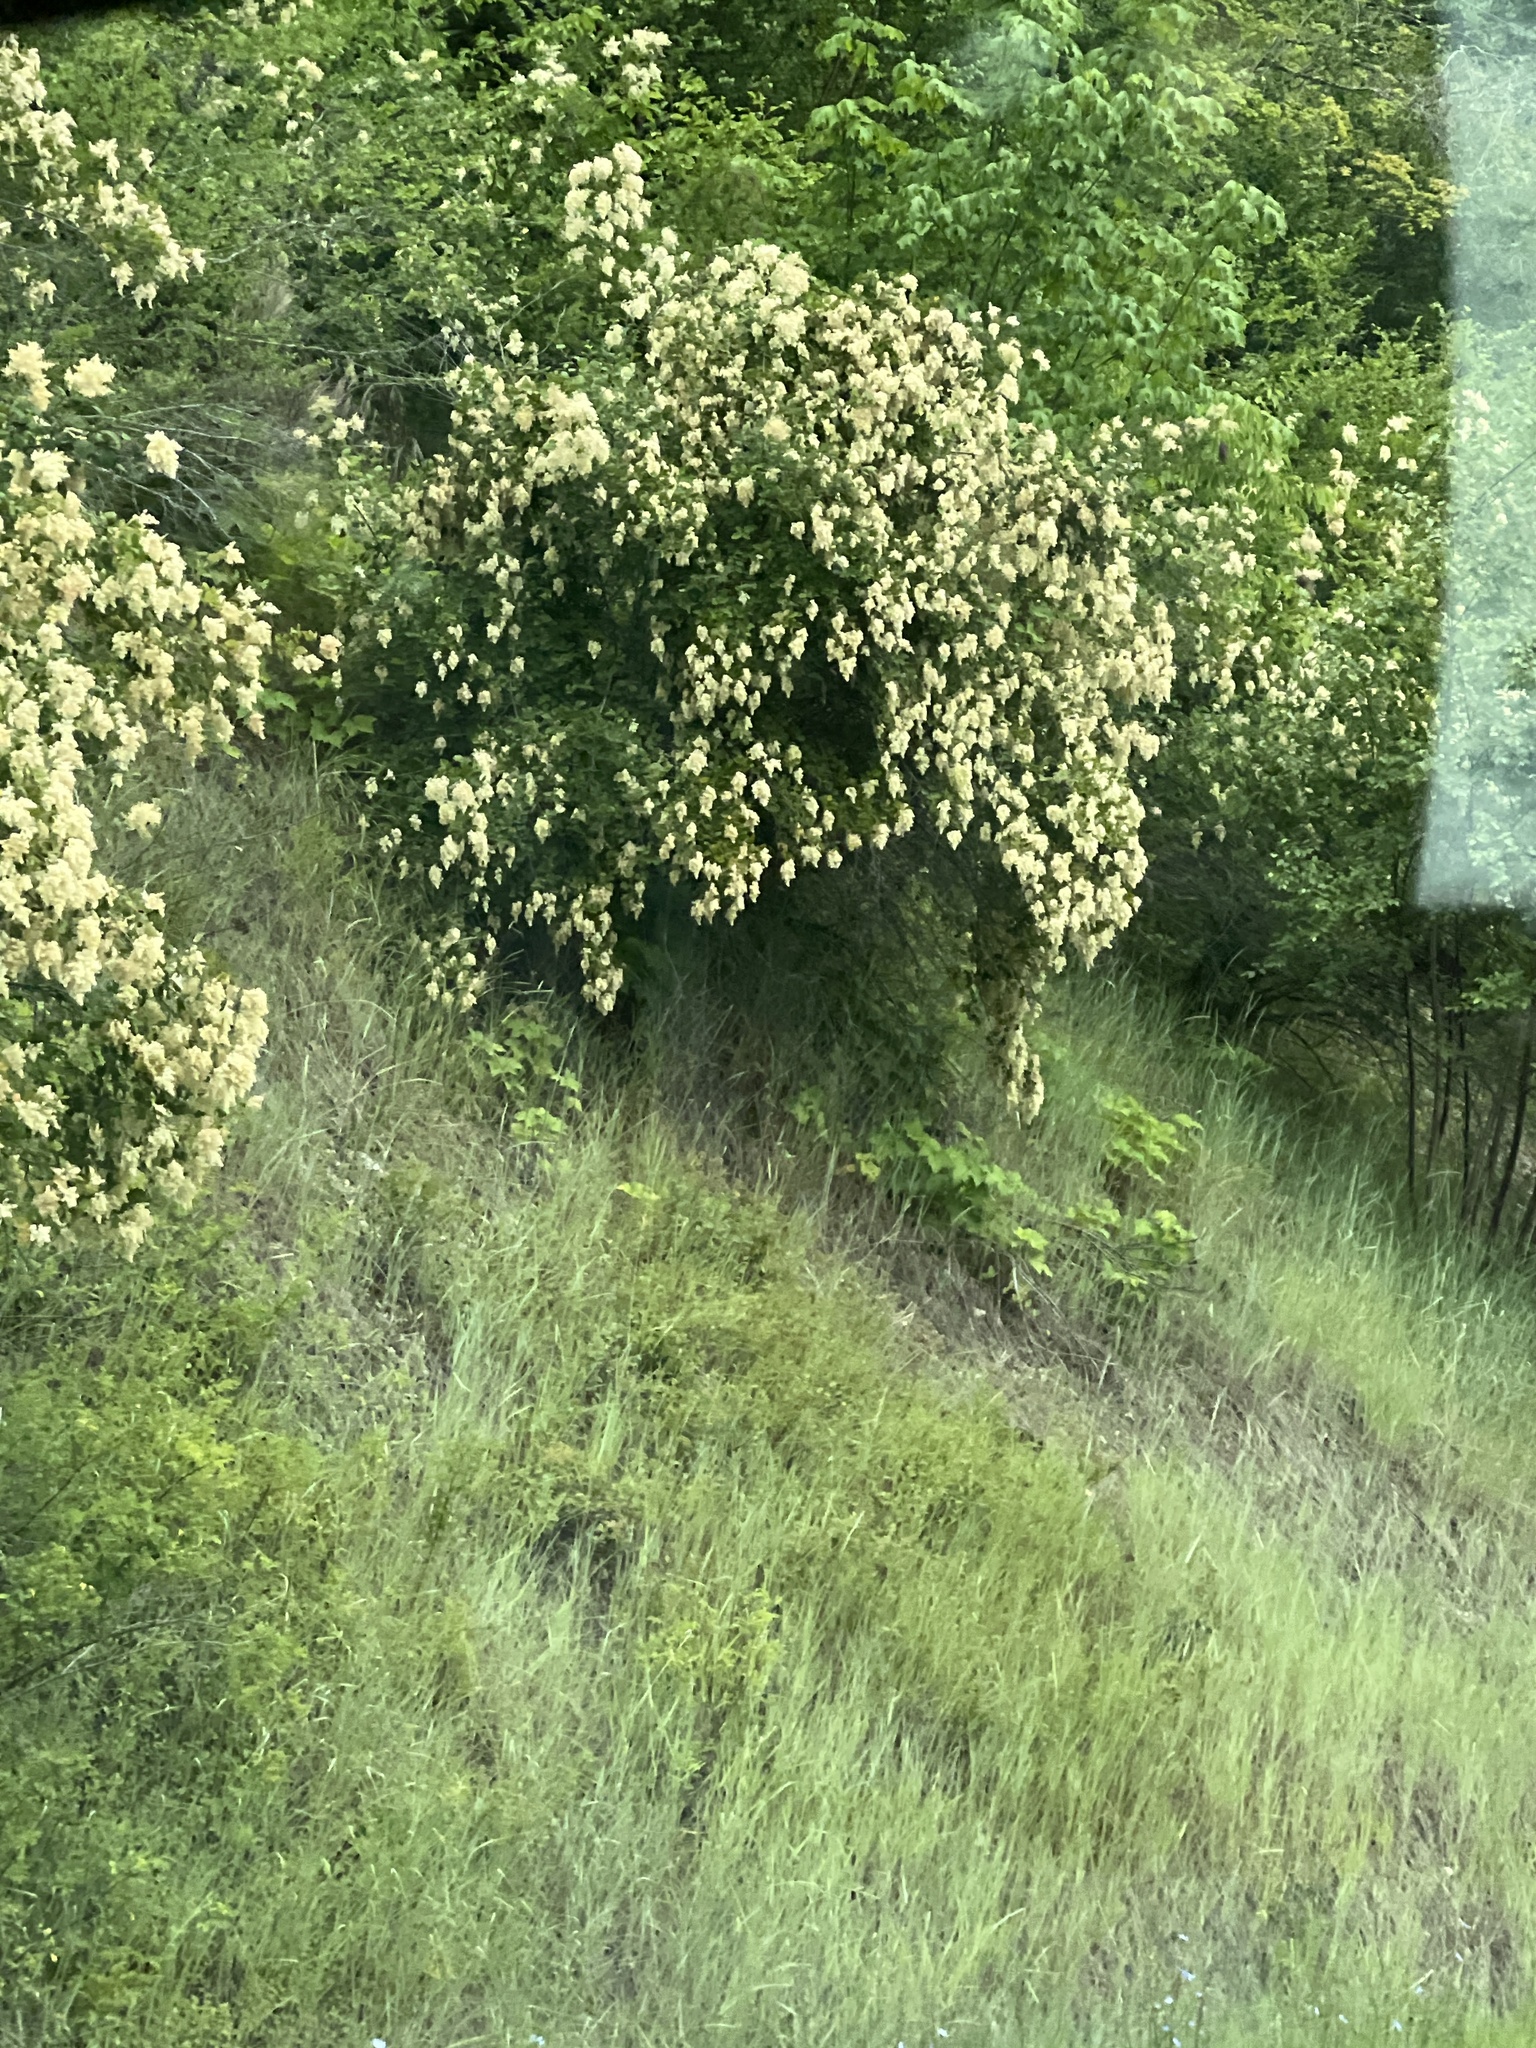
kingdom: Plantae
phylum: Tracheophyta
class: Magnoliopsida
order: Rosales
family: Rosaceae
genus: Holodiscus
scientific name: Holodiscus discolor
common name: Oceanspray
